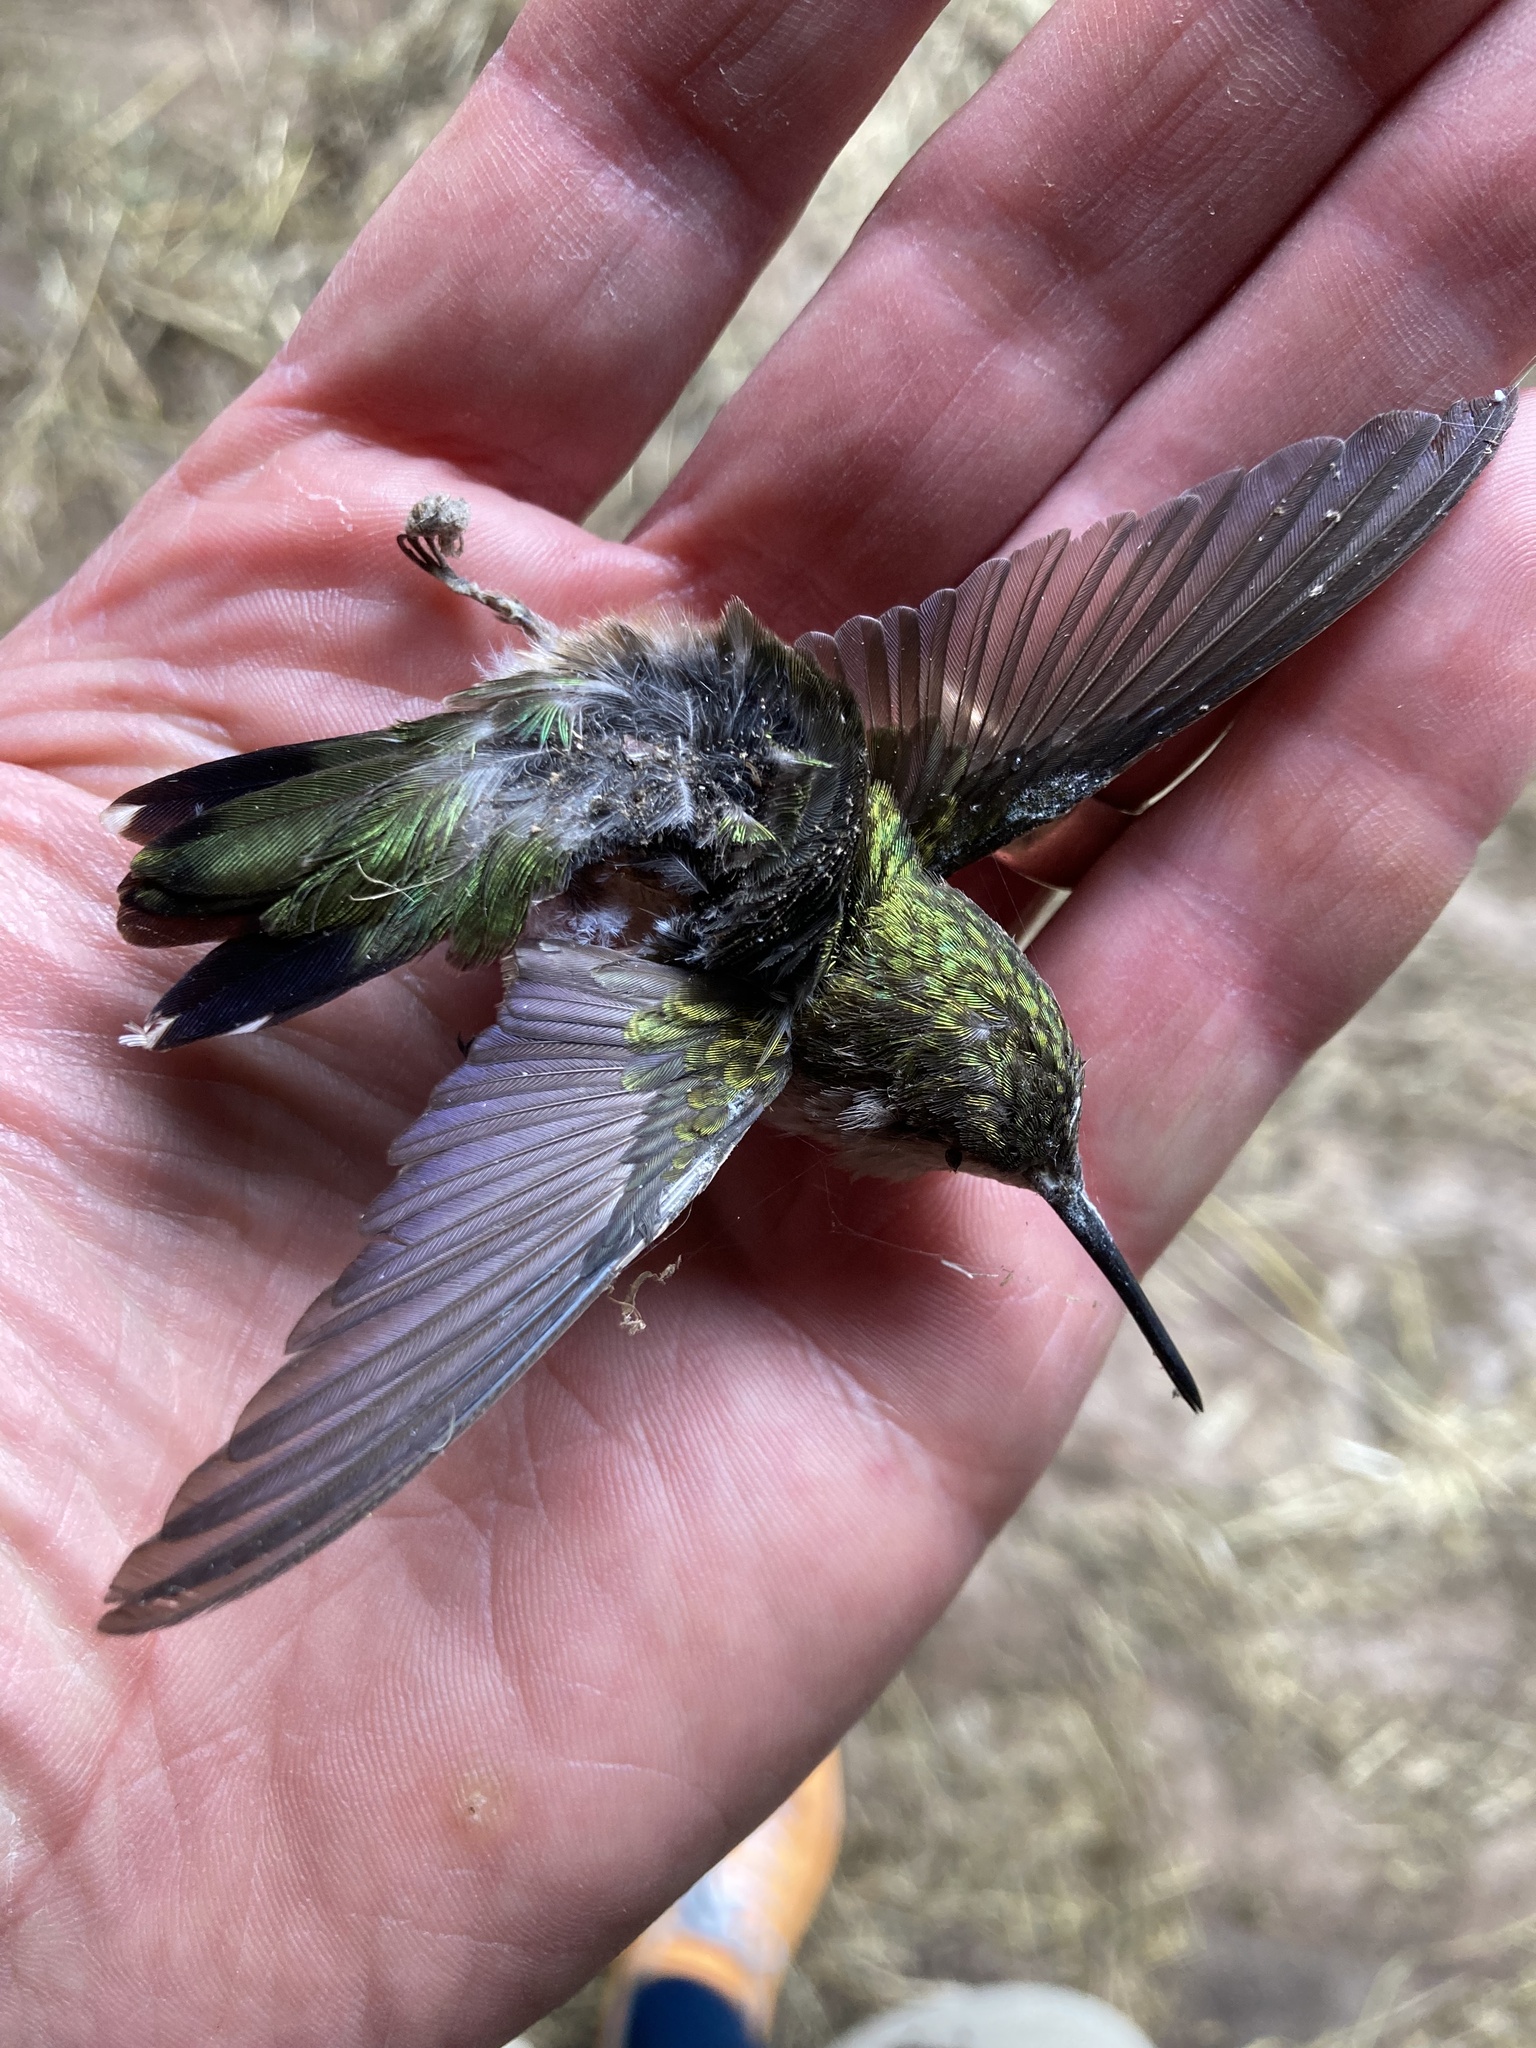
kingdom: Animalia
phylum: Chordata
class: Aves
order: Apodiformes
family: Trochilidae
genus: Archilochus
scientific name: Archilochus colubris
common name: Ruby-throated hummingbird
